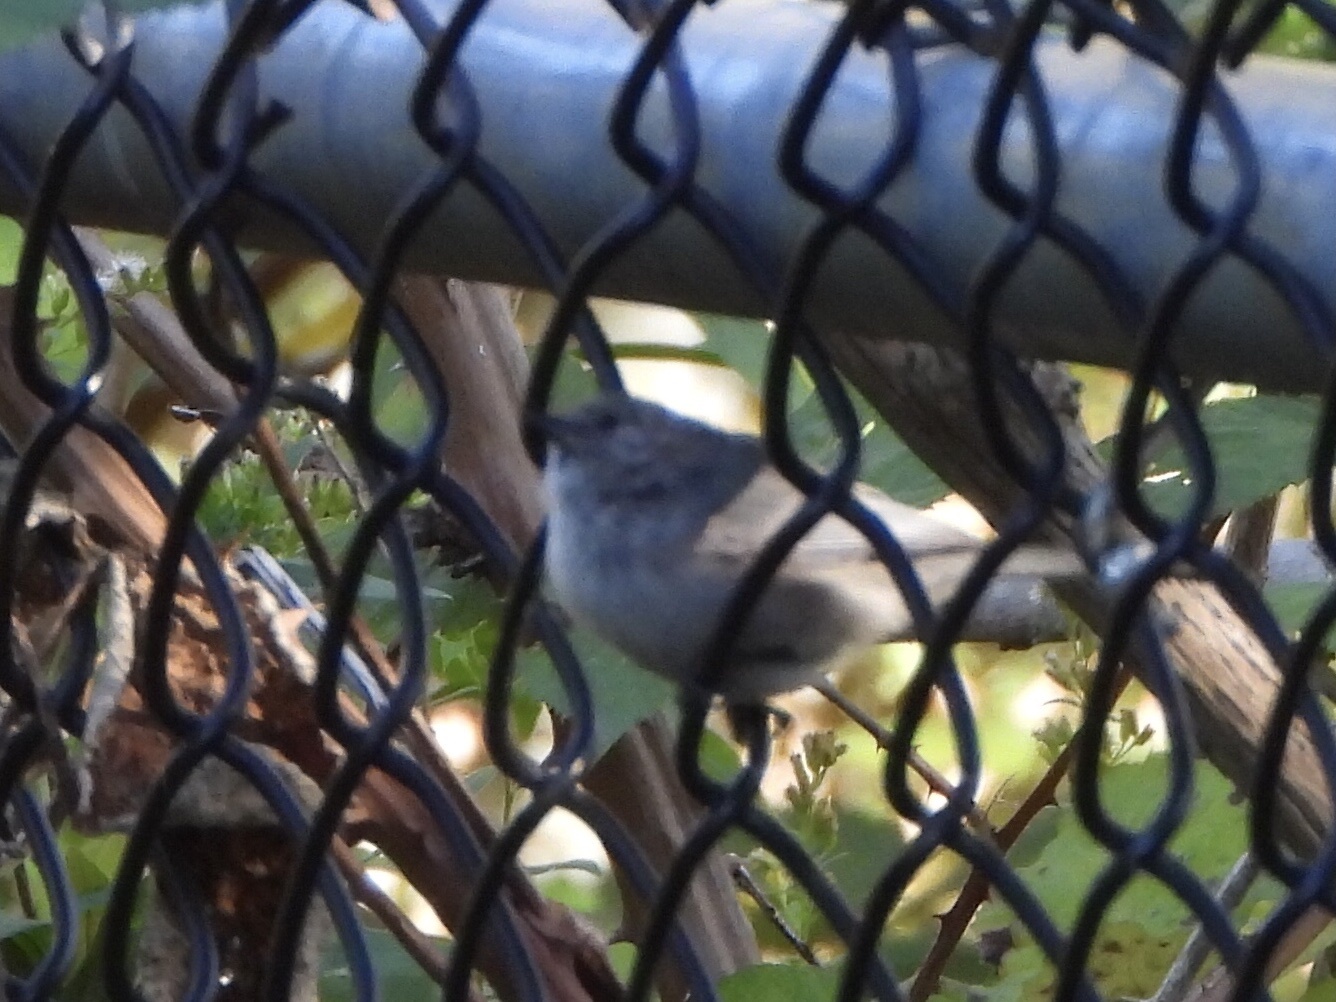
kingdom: Animalia
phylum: Chordata
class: Aves
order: Passeriformes
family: Aegithalidae
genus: Psaltriparus
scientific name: Psaltriparus minimus
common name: American bushtit
